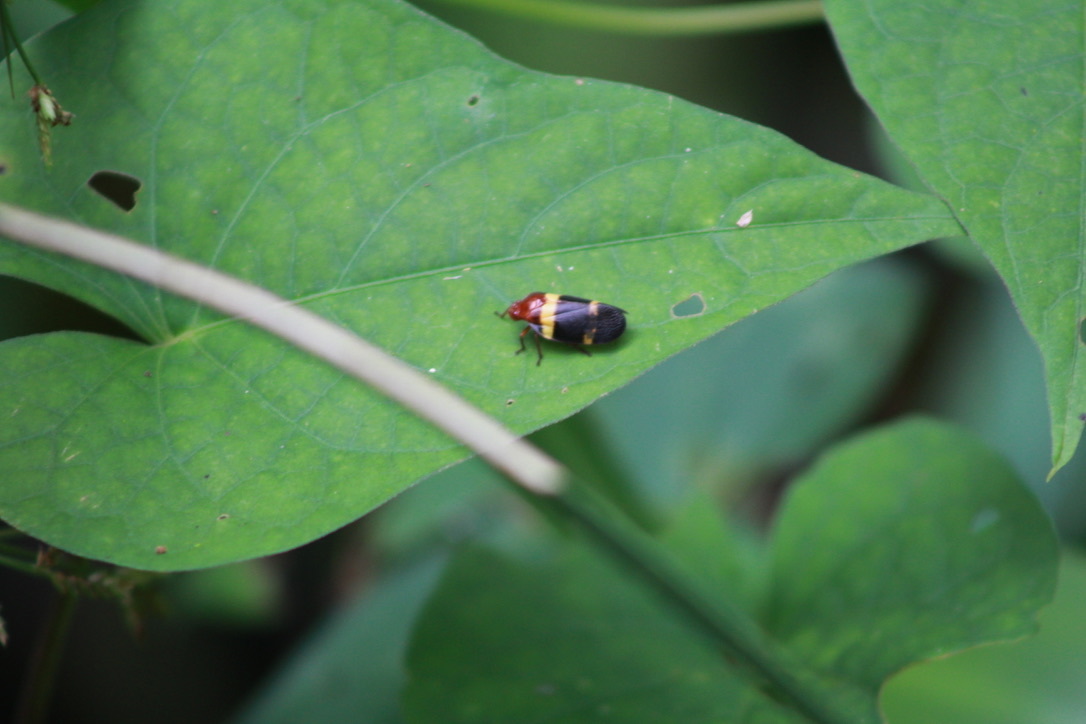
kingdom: Animalia
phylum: Arthropoda
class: Insecta
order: Hemiptera
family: Cercopidae
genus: Sphenorhina
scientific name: Sphenorhina rubra
